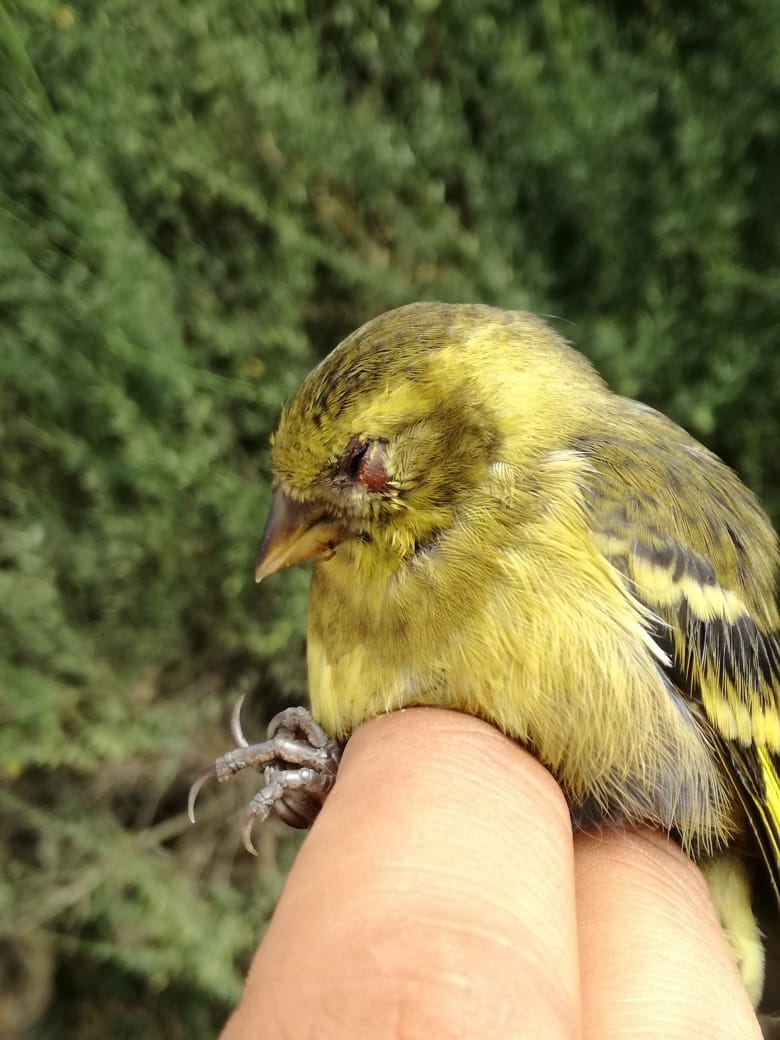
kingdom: Animalia
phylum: Chordata
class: Aves
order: Passeriformes
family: Fringillidae
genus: Spinus
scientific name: Spinus barbatus
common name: Black-chinned siskin
